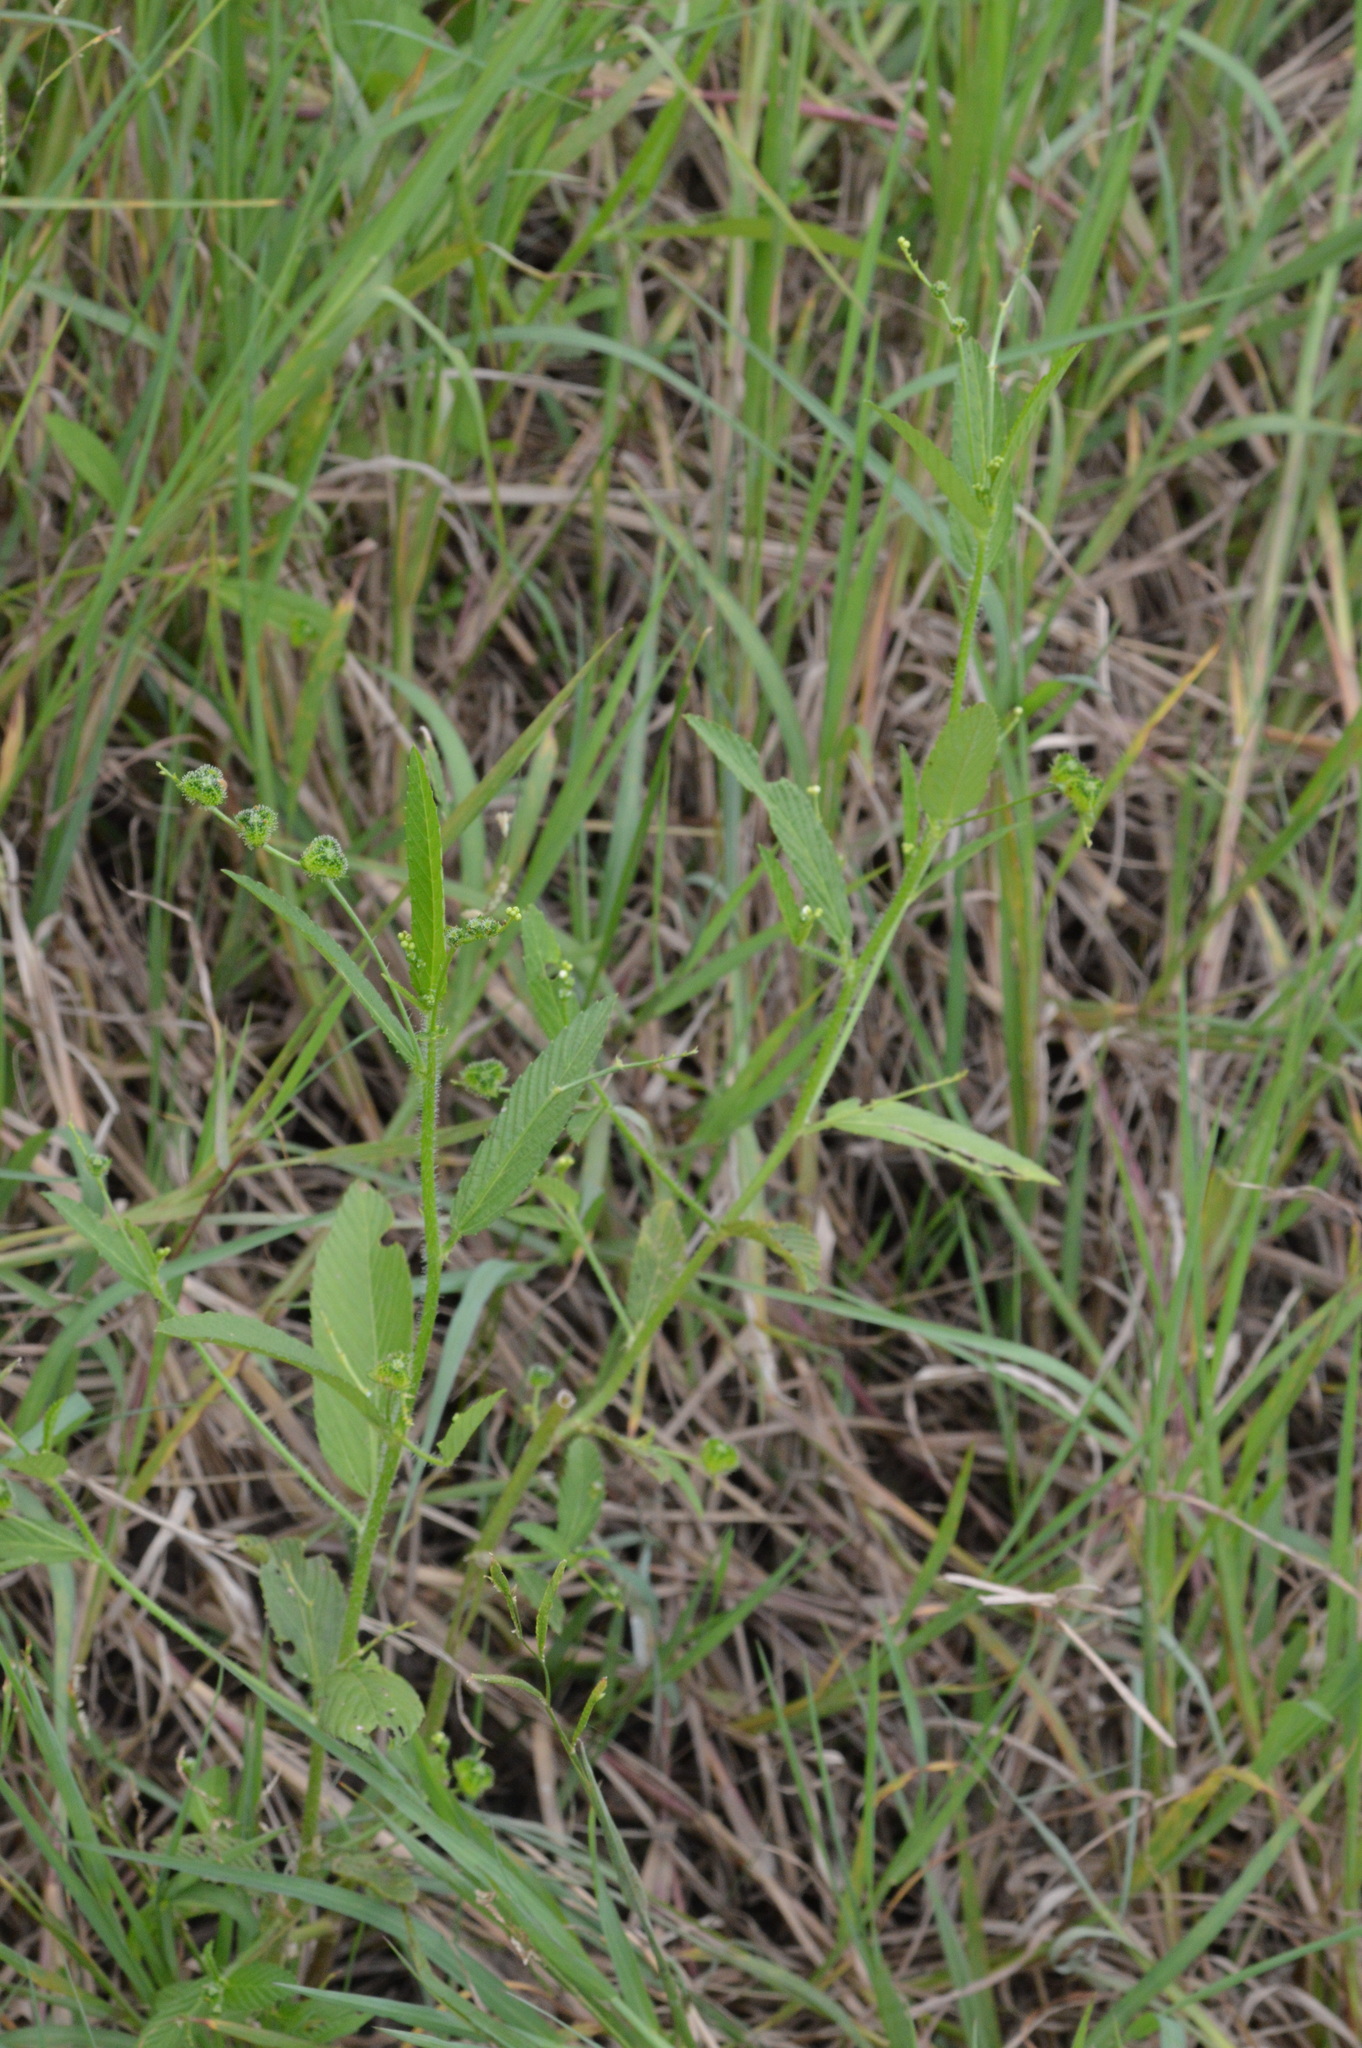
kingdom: Plantae
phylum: Tracheophyta
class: Magnoliopsida
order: Malpighiales
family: Euphorbiaceae
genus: Caperonia
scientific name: Caperonia palustris
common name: Sacatrapo
